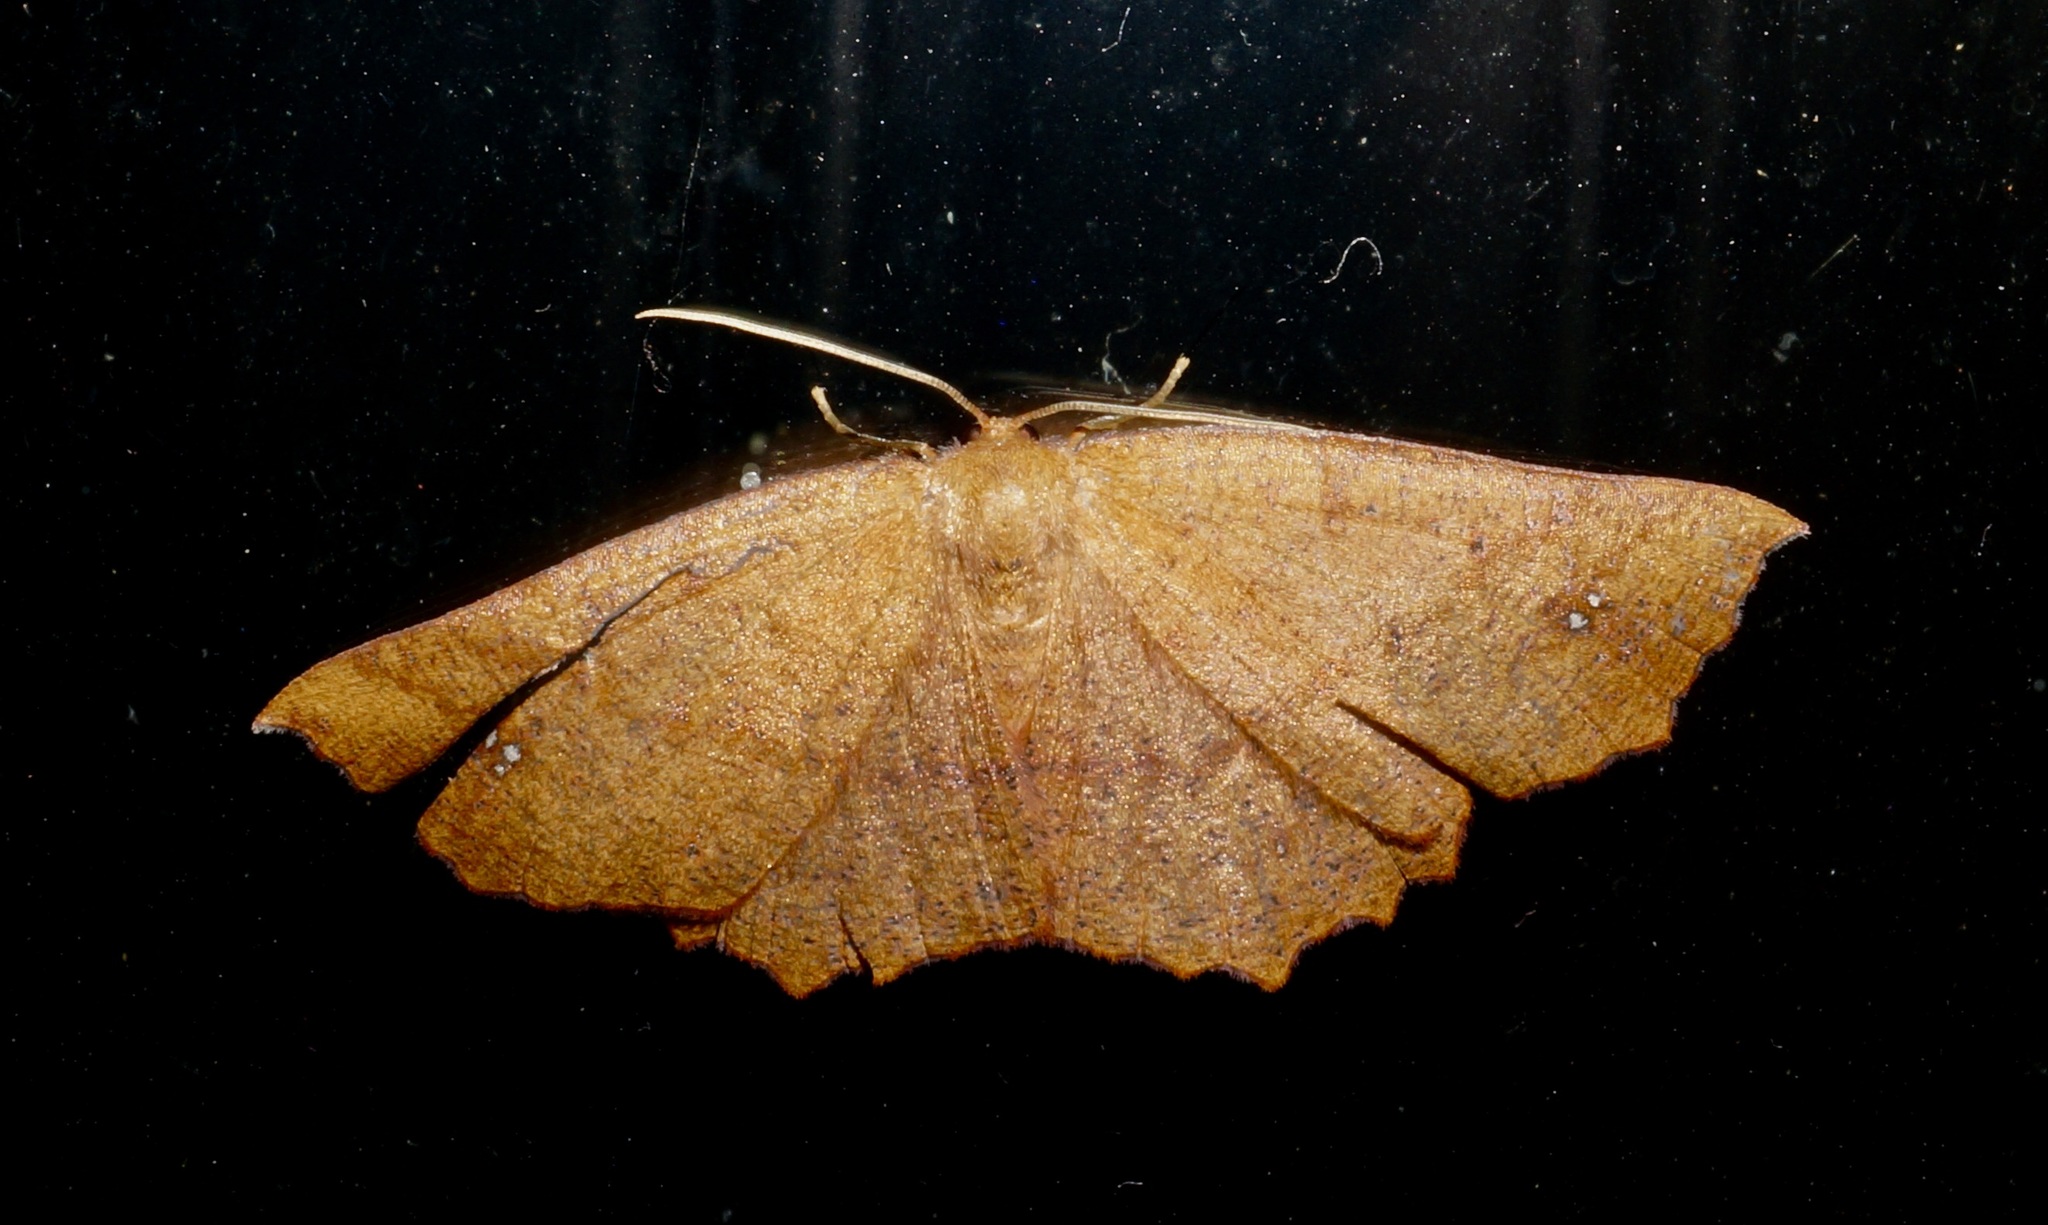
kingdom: Animalia
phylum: Arthropoda
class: Insecta
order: Lepidoptera
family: Geometridae
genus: Xyridacma
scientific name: Xyridacma ustaria
